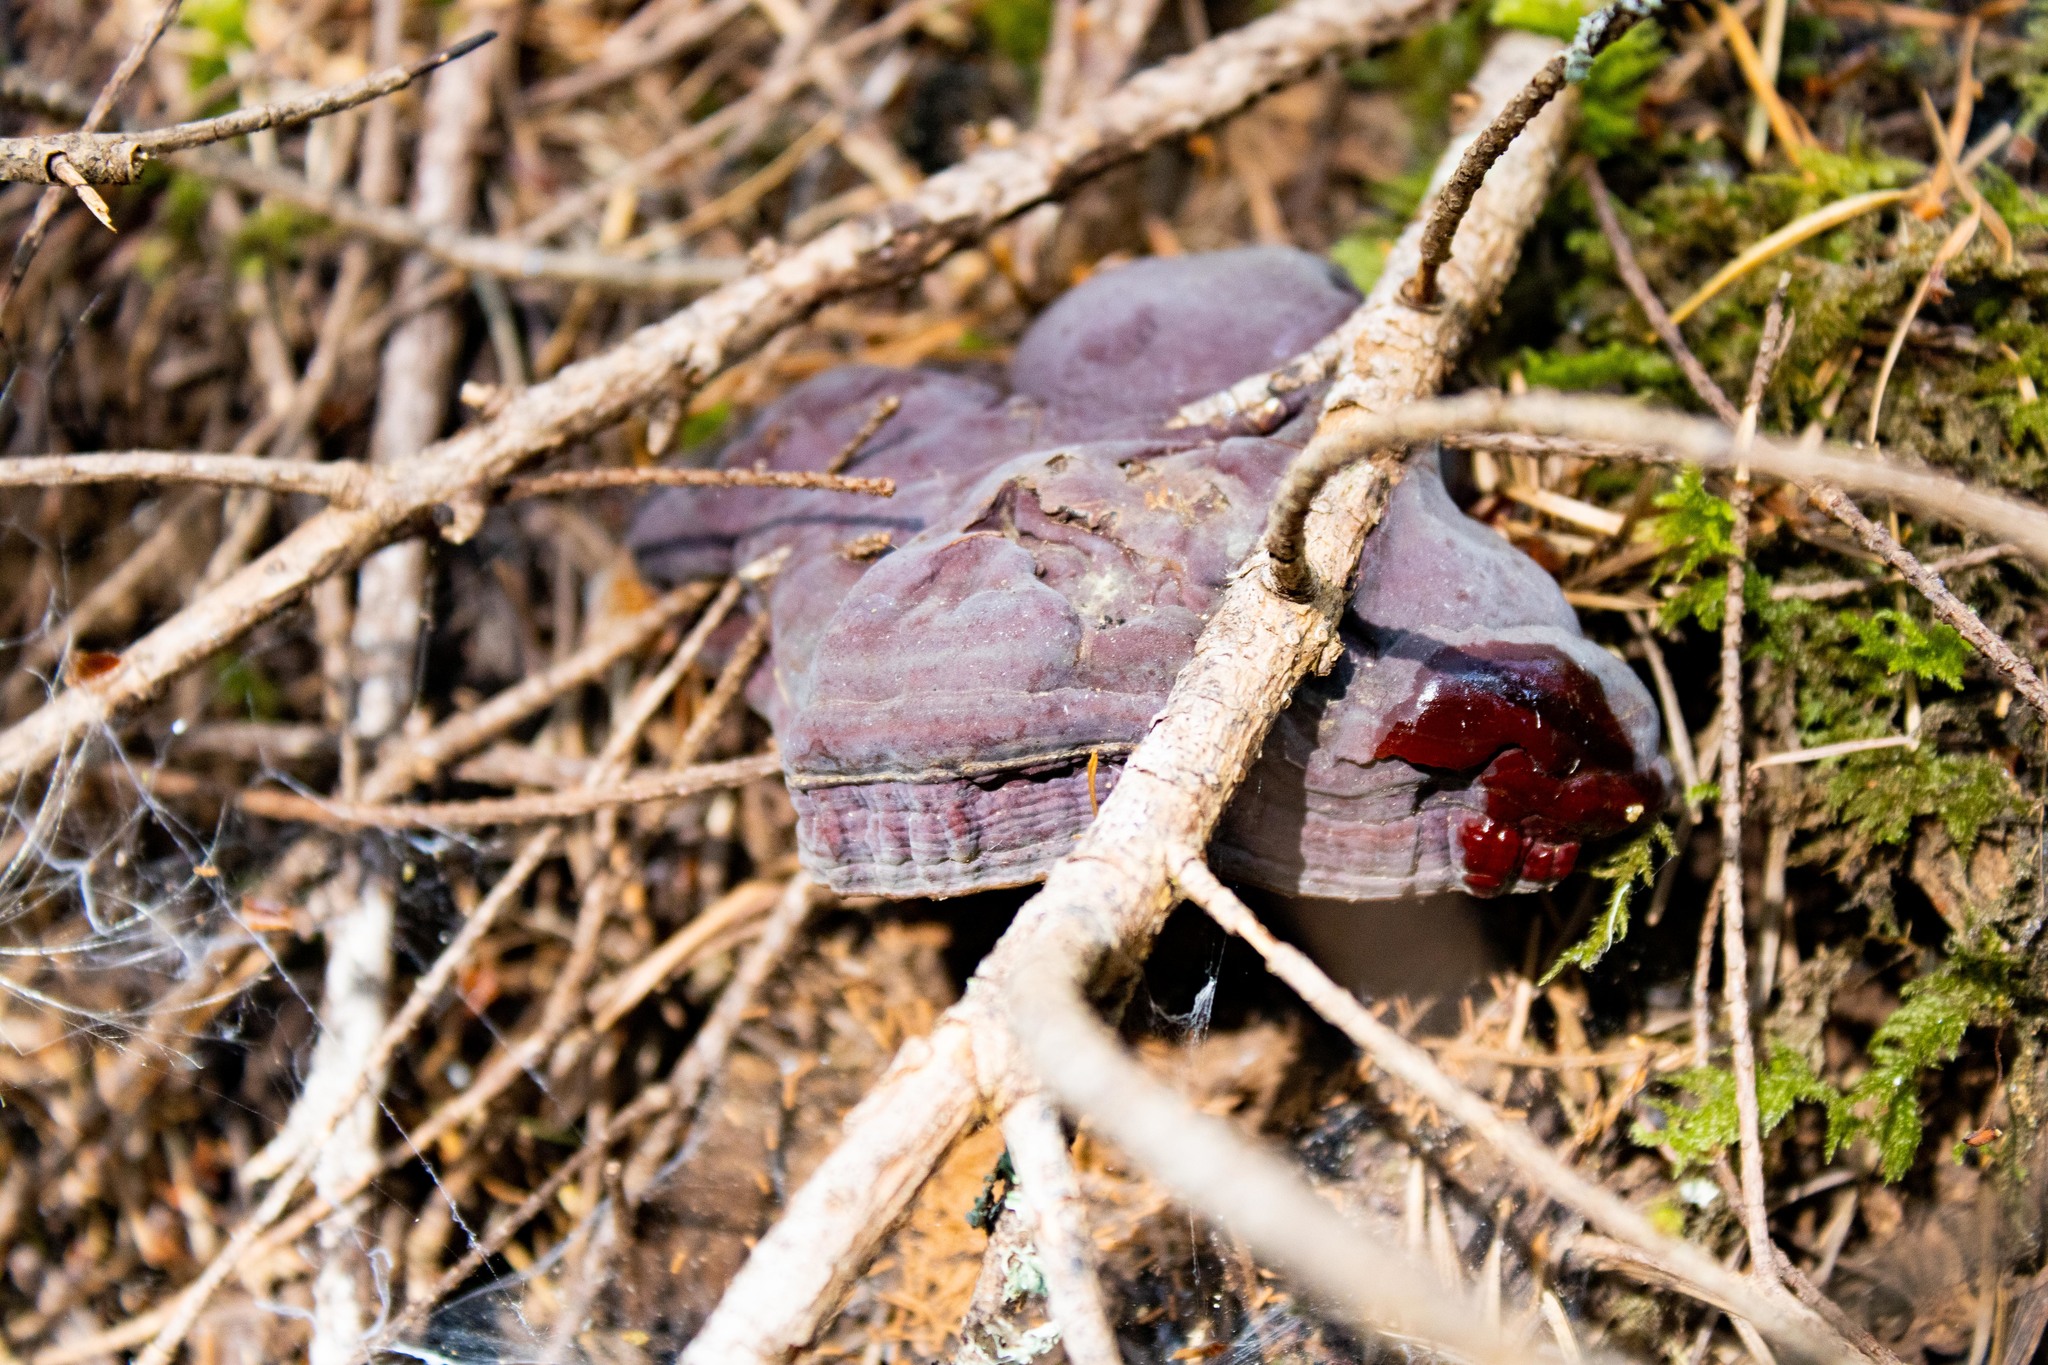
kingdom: Fungi
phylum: Basidiomycota
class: Agaricomycetes
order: Polyporales
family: Polyporaceae
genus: Ganoderma
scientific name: Ganoderma oregonense
